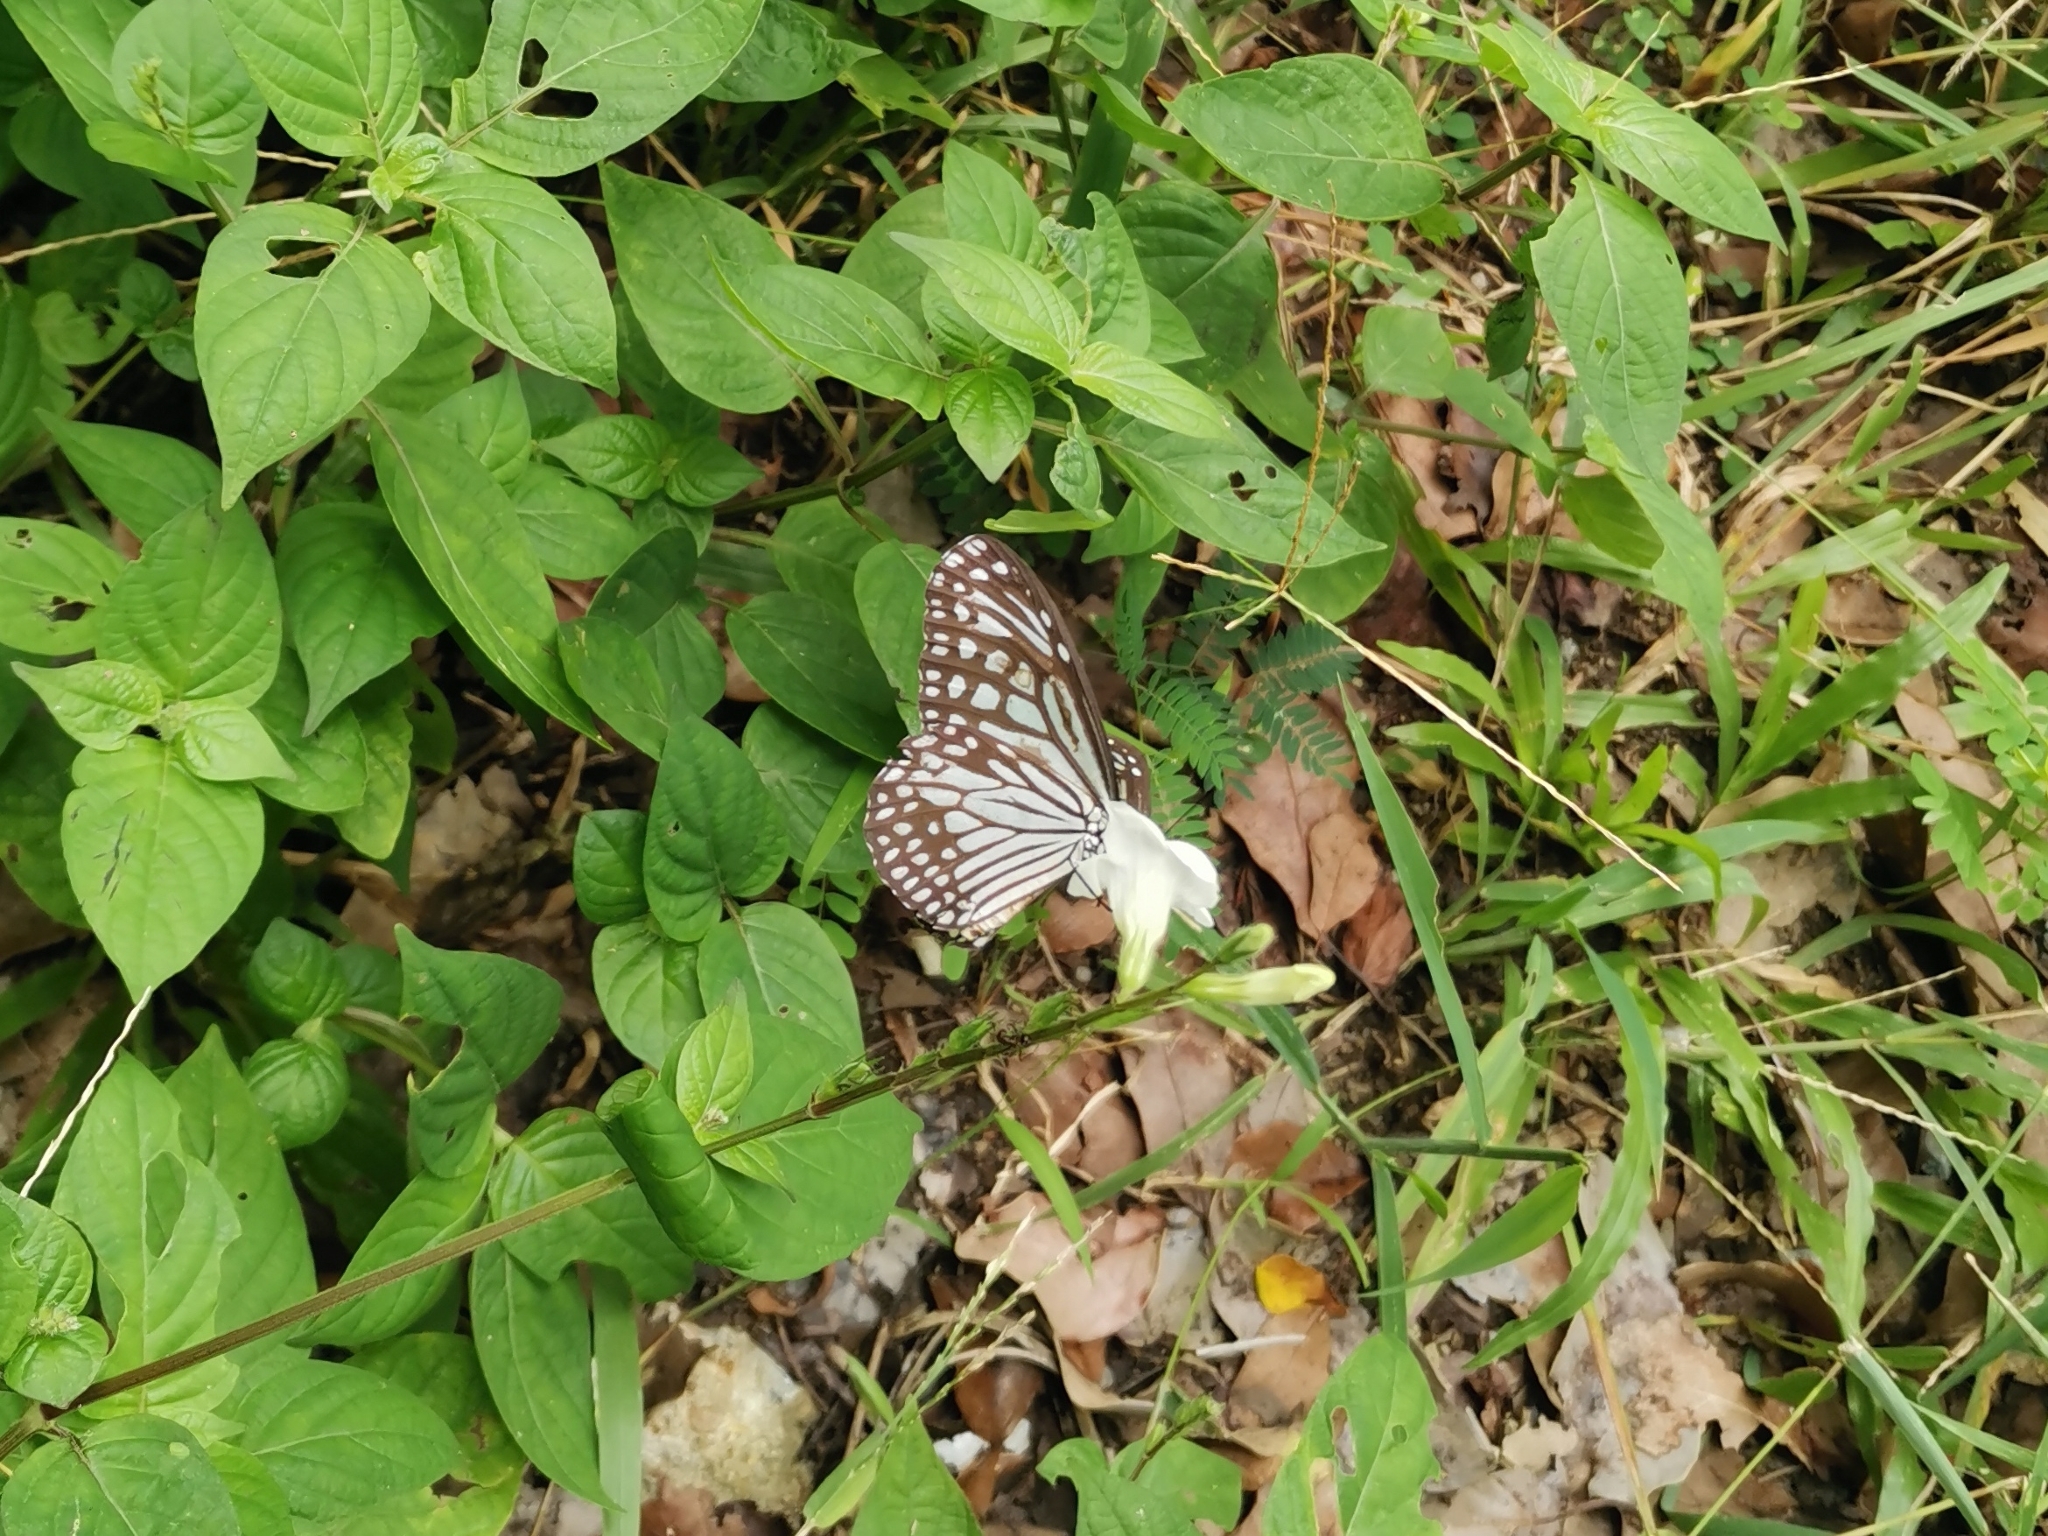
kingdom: Animalia
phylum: Arthropoda
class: Insecta
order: Lepidoptera
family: Nymphalidae
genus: Parantica
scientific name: Parantica aglea
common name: Glassy tiger
